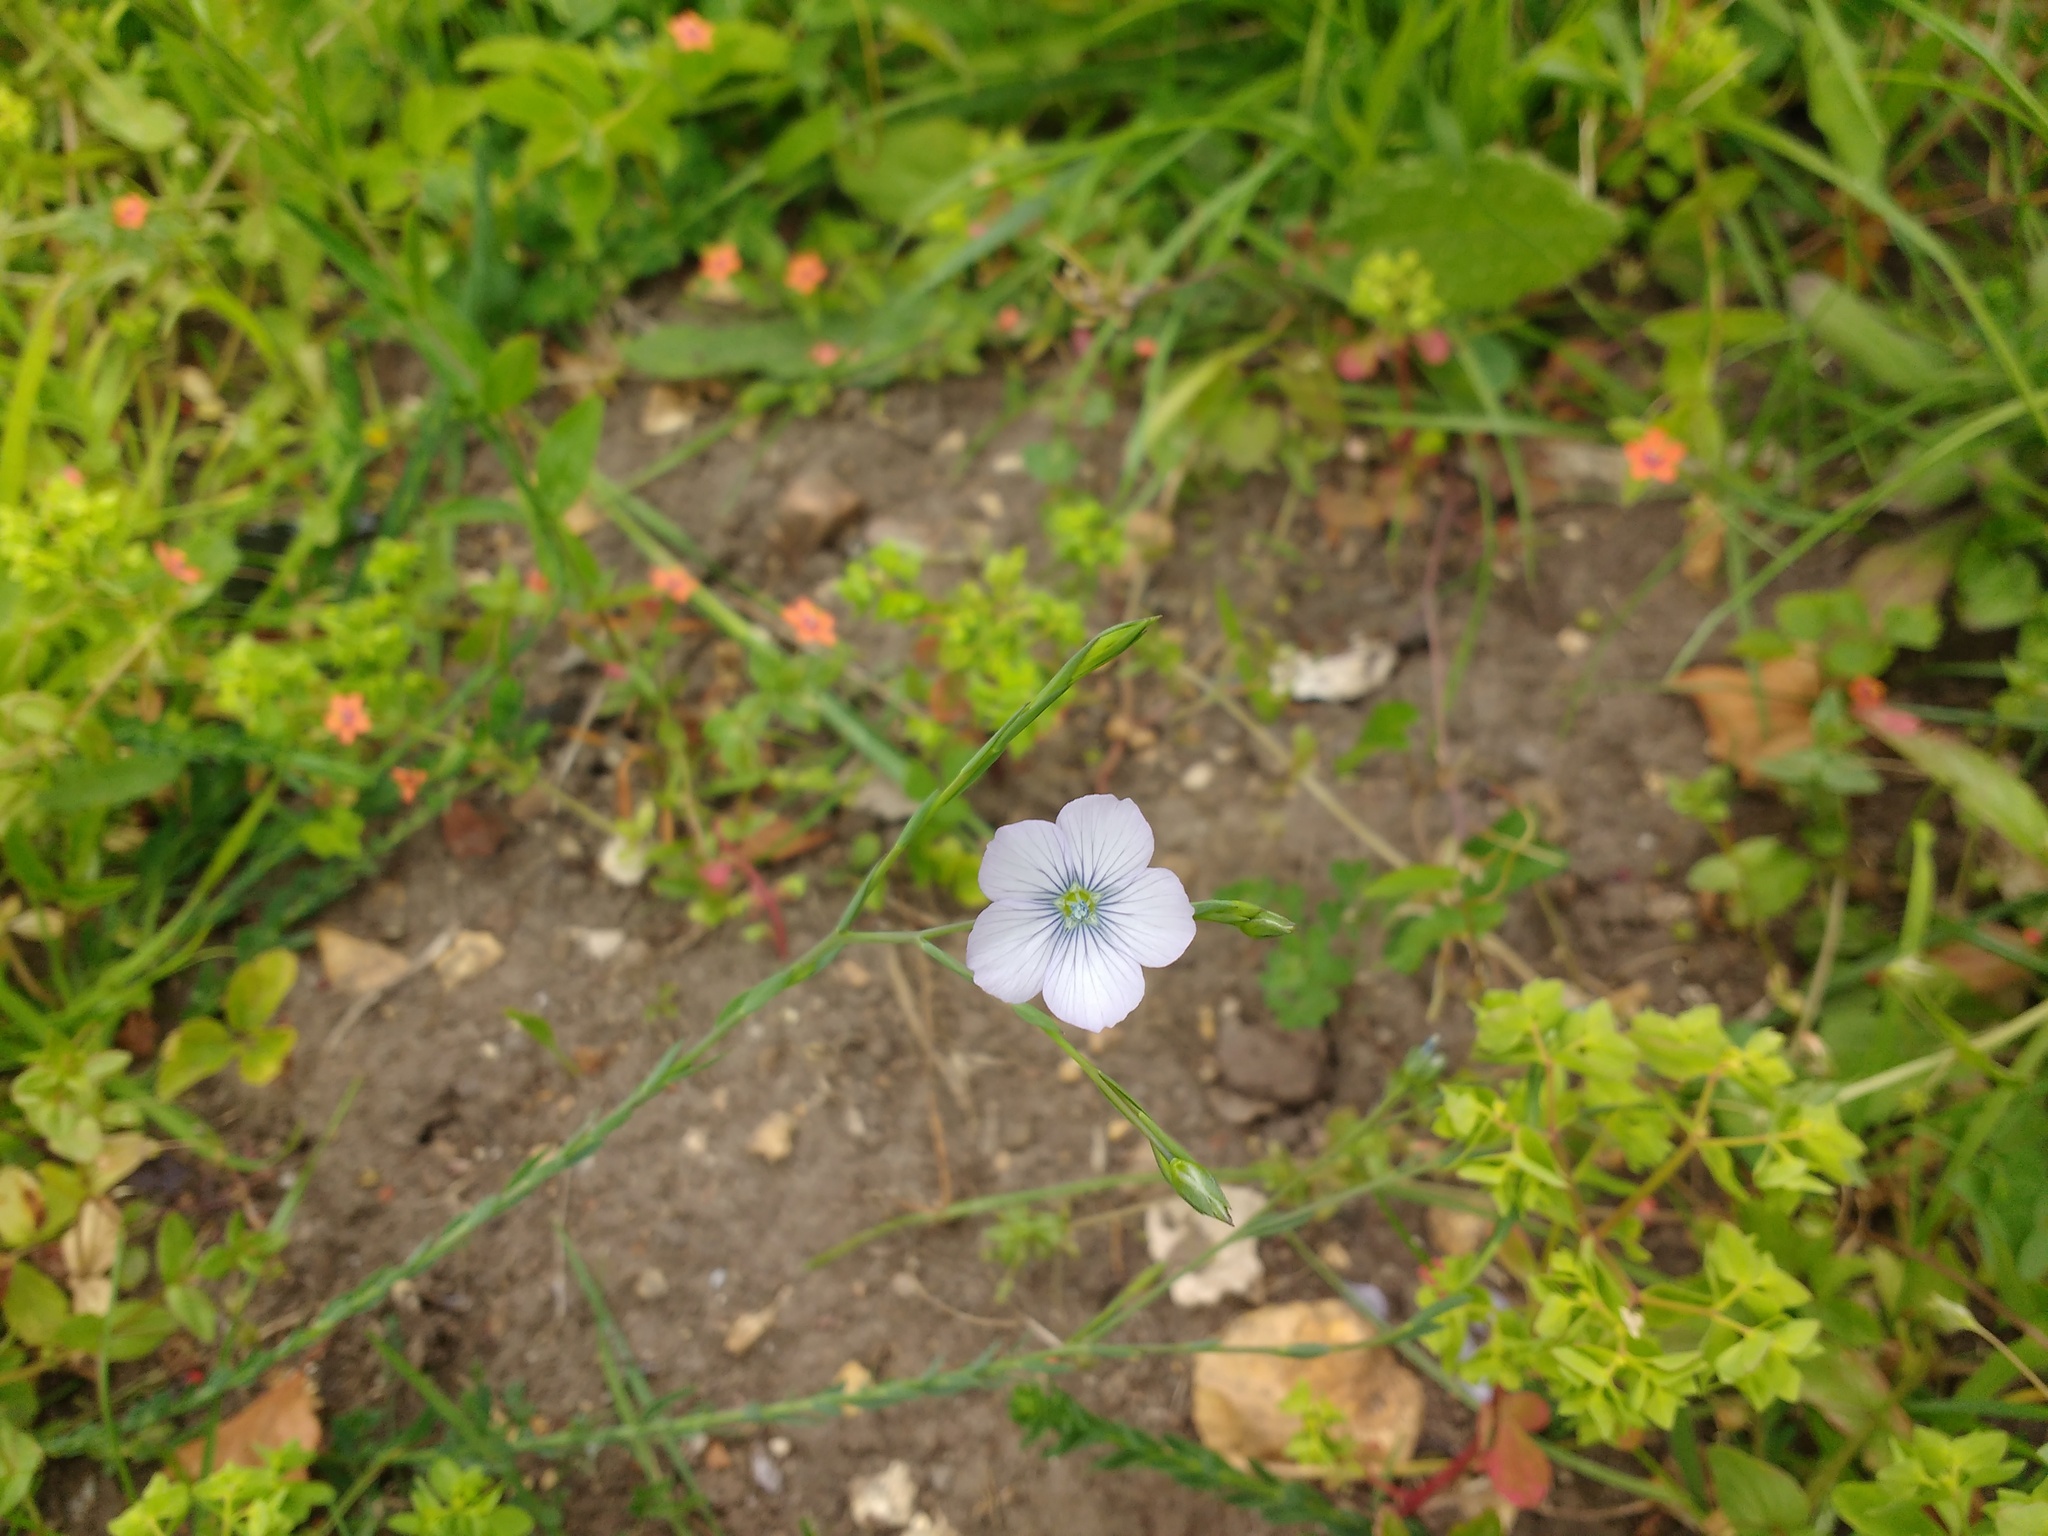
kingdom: Plantae
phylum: Tracheophyta
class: Magnoliopsida
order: Malpighiales
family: Linaceae
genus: Linum
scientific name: Linum bienne
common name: Pale flax
